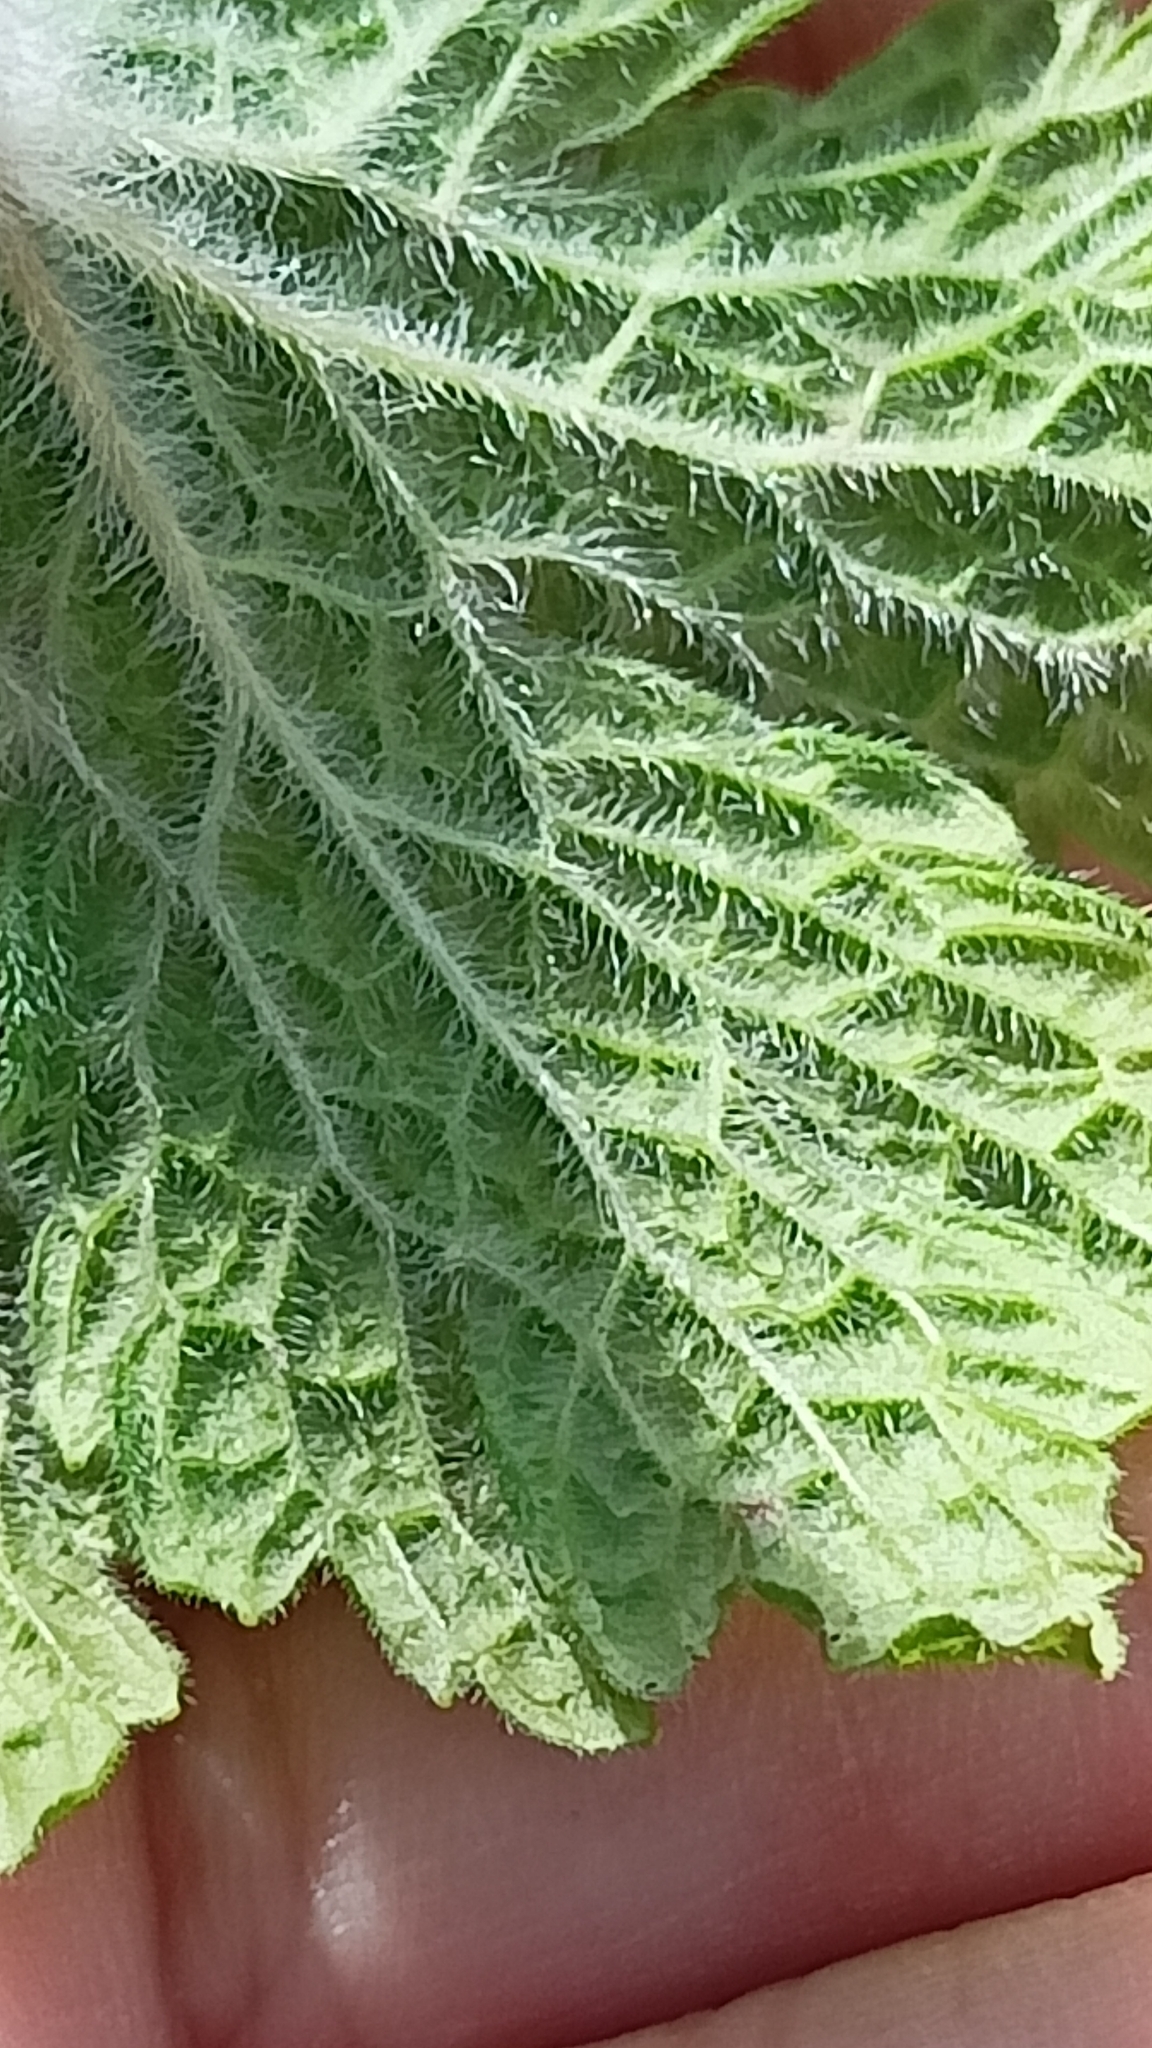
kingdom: Plantae
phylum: Tracheophyta
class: Magnoliopsida
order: Lamiales
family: Lamiaceae
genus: Leonurus
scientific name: Leonurus quinquelobatus
